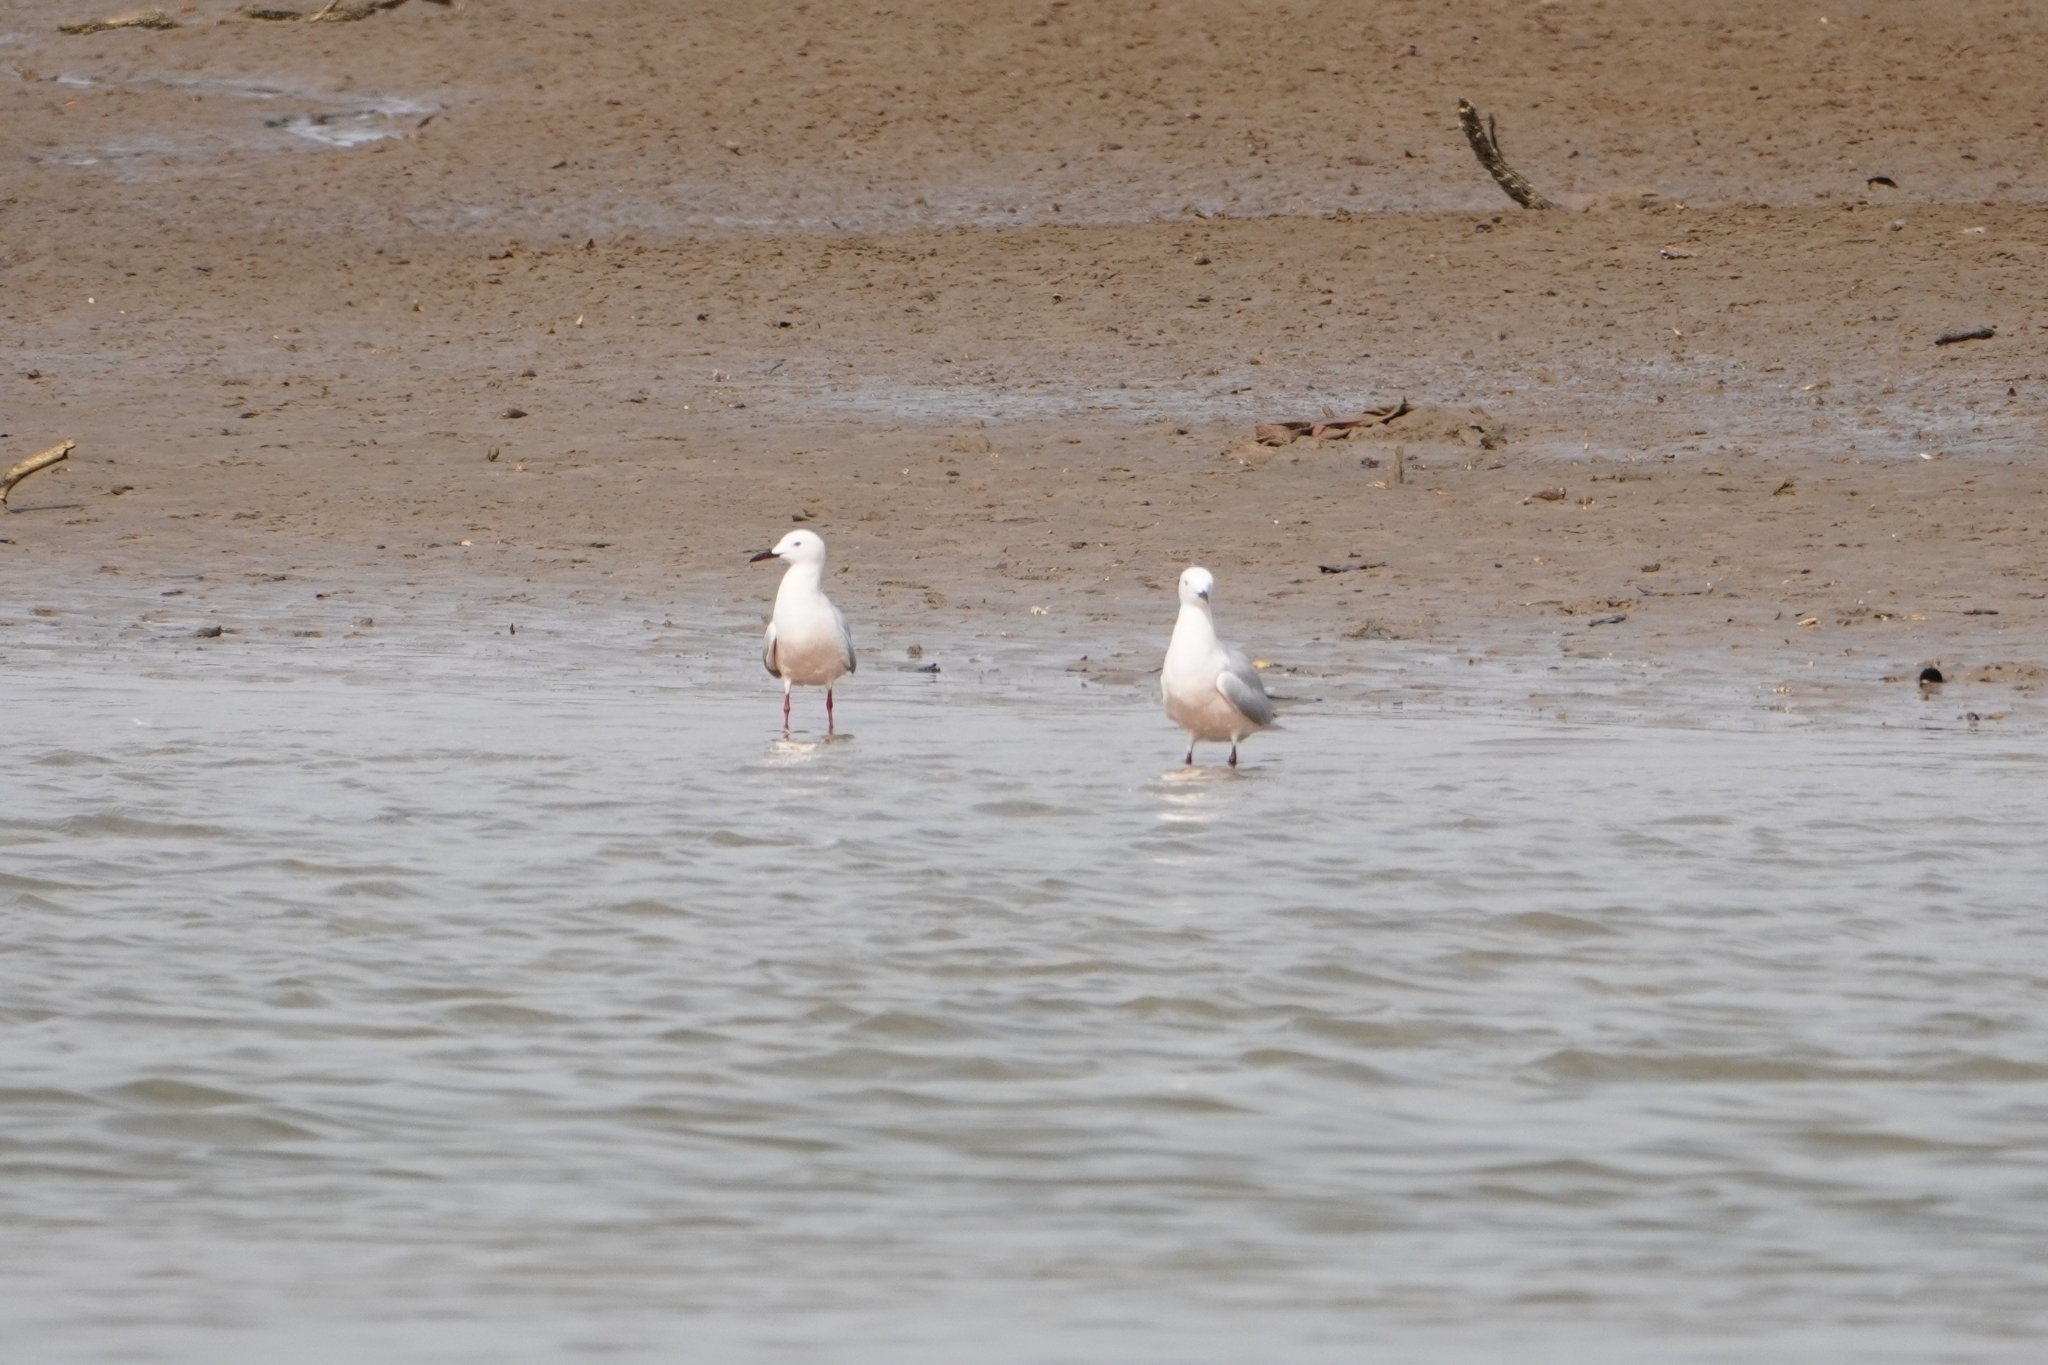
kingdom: Animalia
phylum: Chordata
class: Aves
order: Charadriiformes
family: Laridae
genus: Chroicocephalus
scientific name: Chroicocephalus genei
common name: Slender-billed gull
